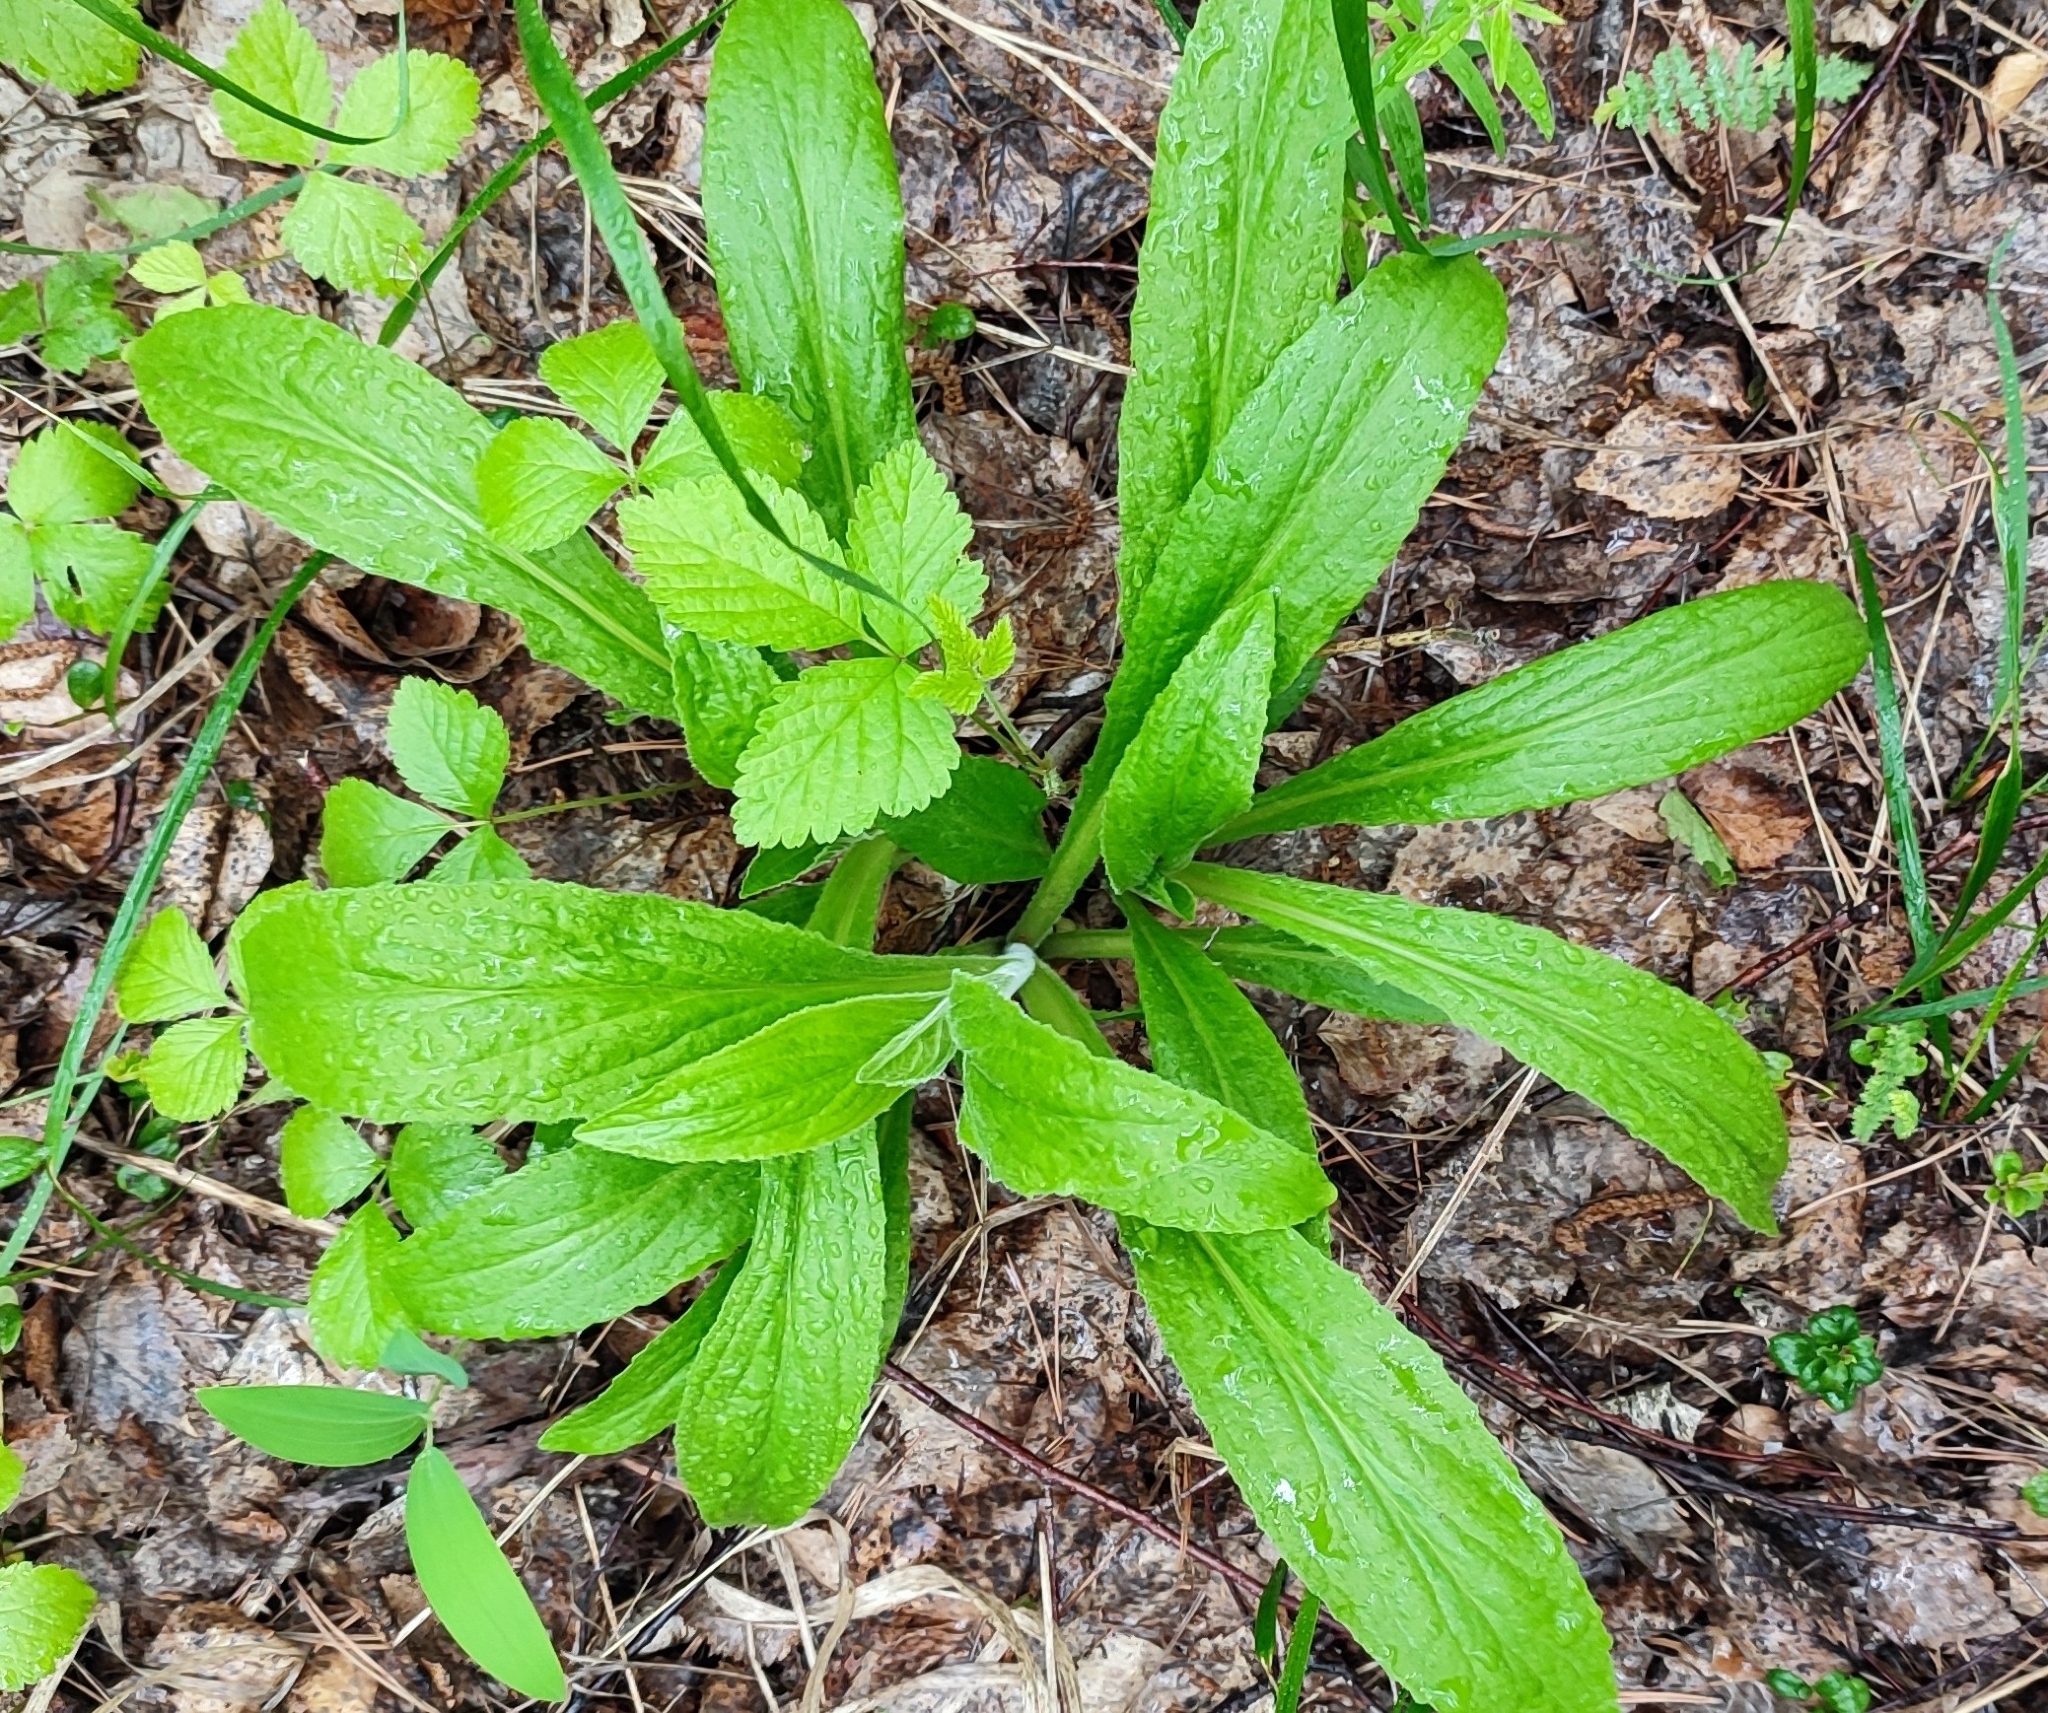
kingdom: Plantae
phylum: Tracheophyta
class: Magnoliopsida
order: Lamiales
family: Plantaginaceae
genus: Digitalis
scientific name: Digitalis grandiflora
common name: Yellow foxglove
